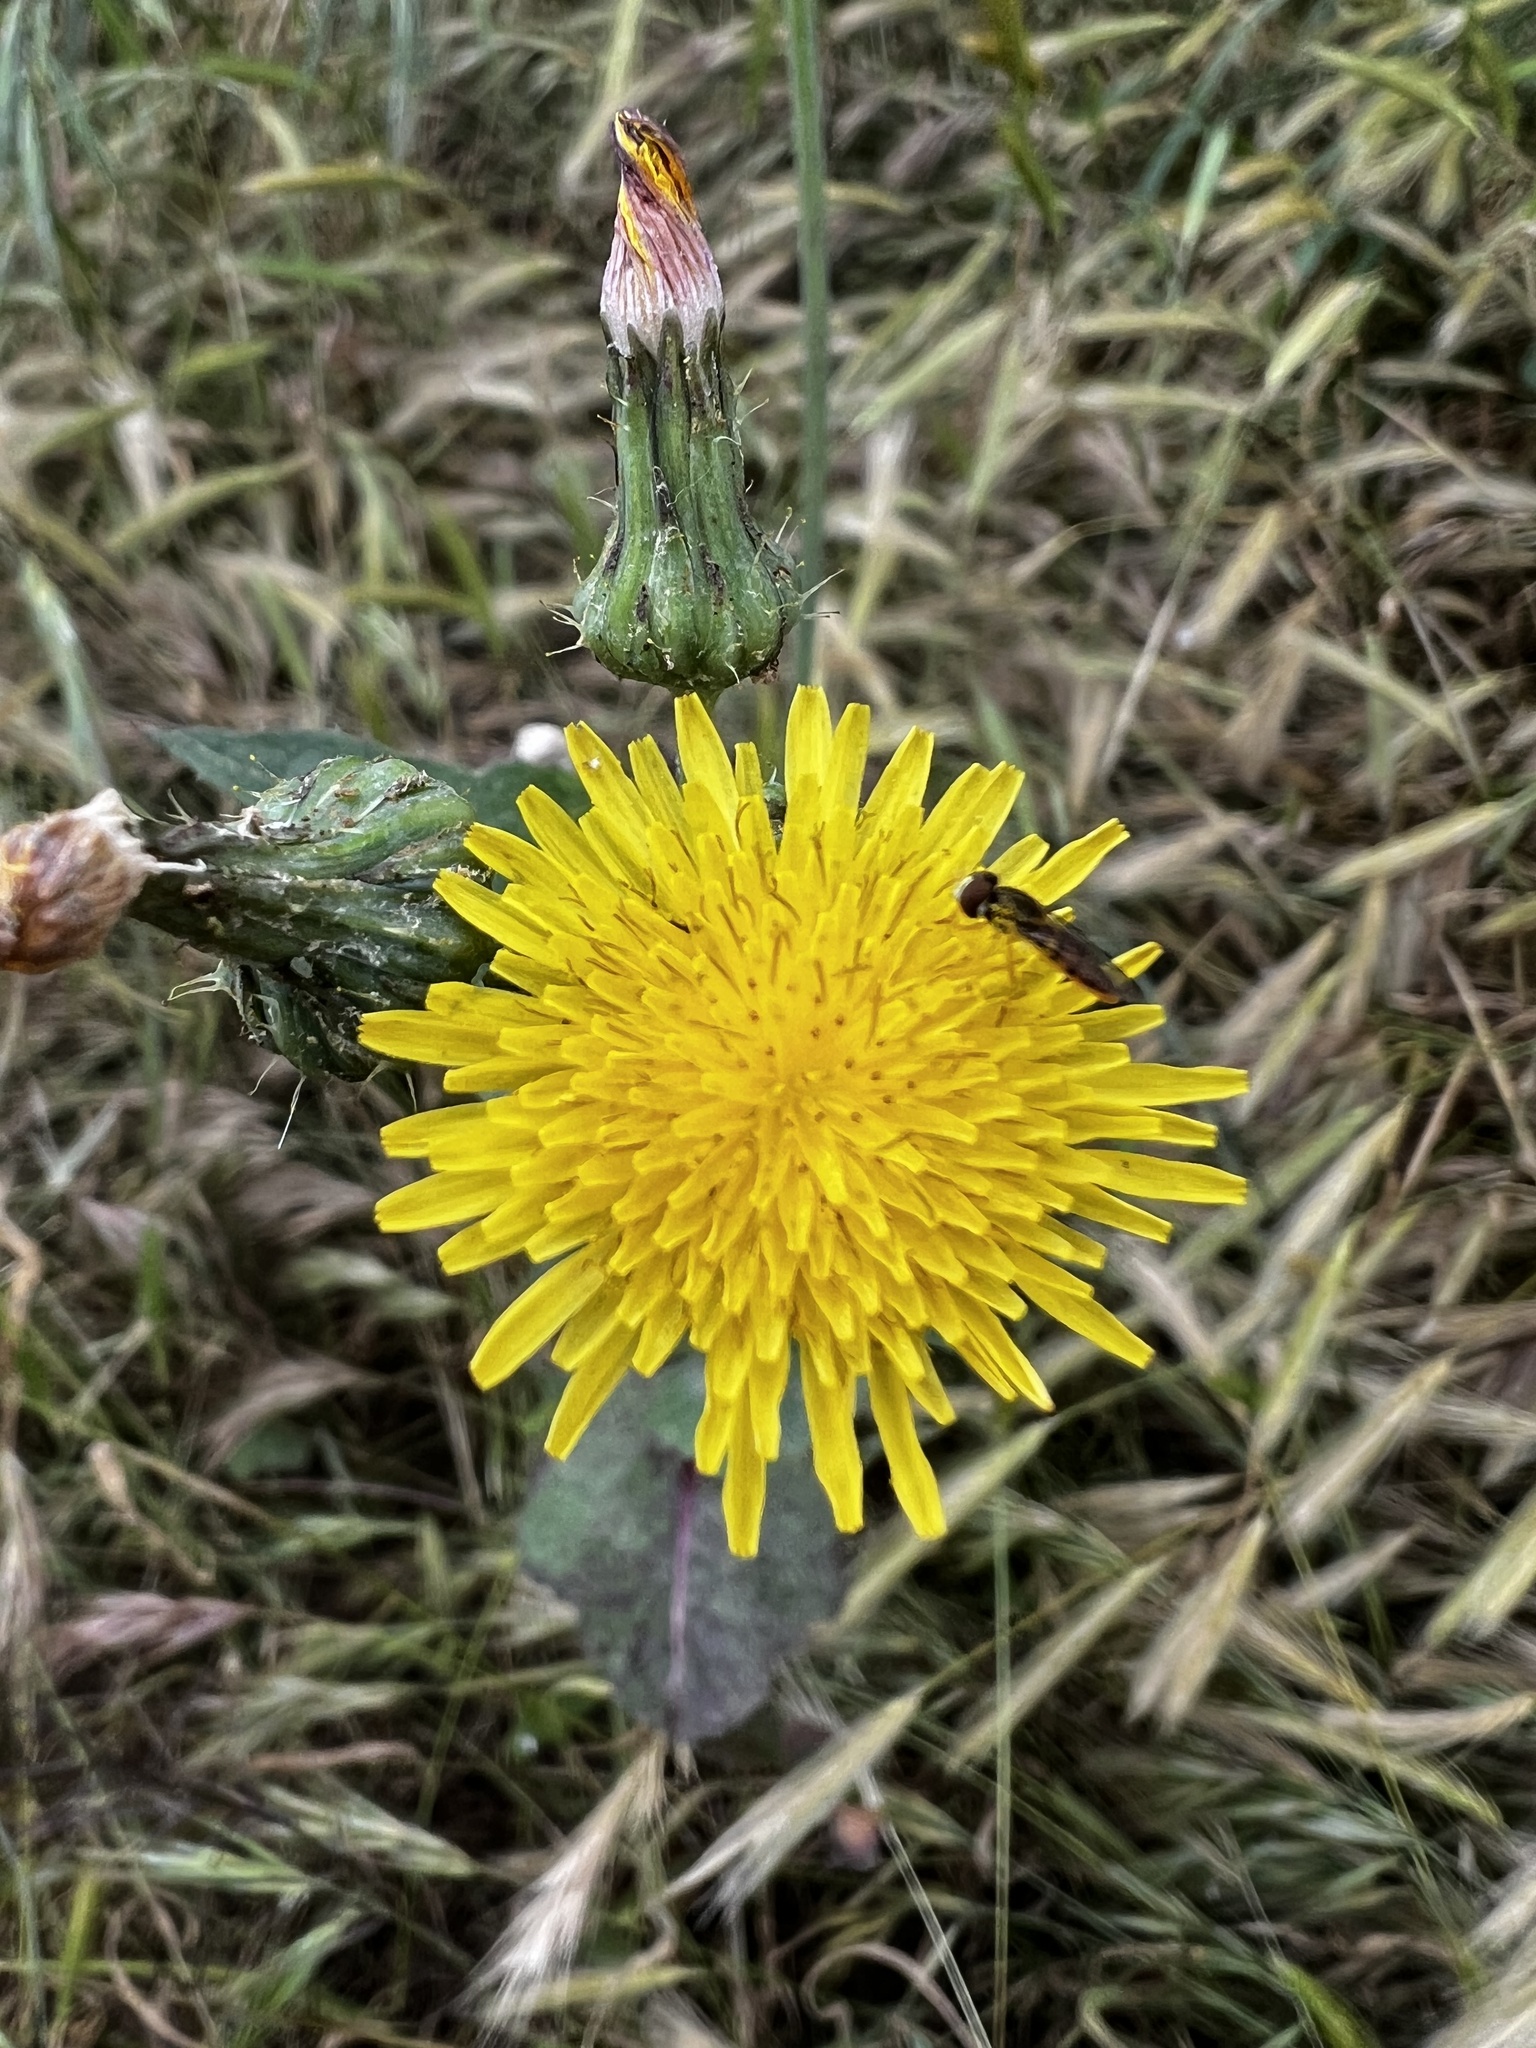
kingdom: Animalia
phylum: Arthropoda
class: Insecta
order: Diptera
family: Syrphidae
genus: Toxomerus
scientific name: Toxomerus marginatus
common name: Syrphid fly
